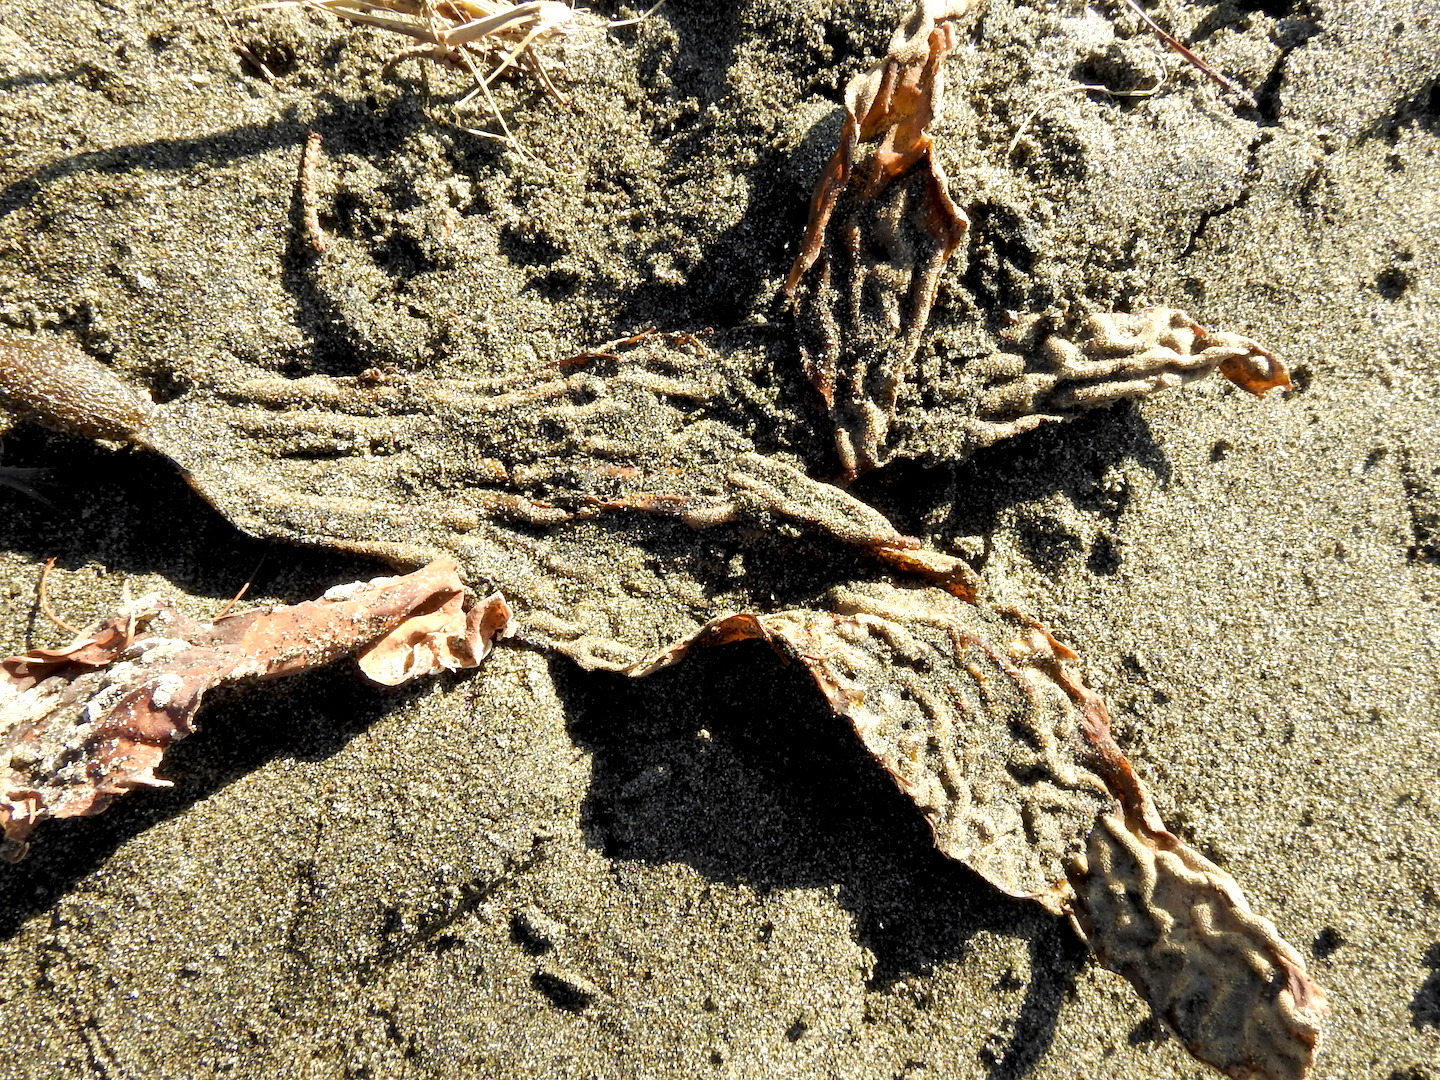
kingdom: Chromista
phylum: Ochrophyta
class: Phaeophyceae
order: Laminariales
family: Laminariaceae
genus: Macrocystis
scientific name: Macrocystis pyrifera
